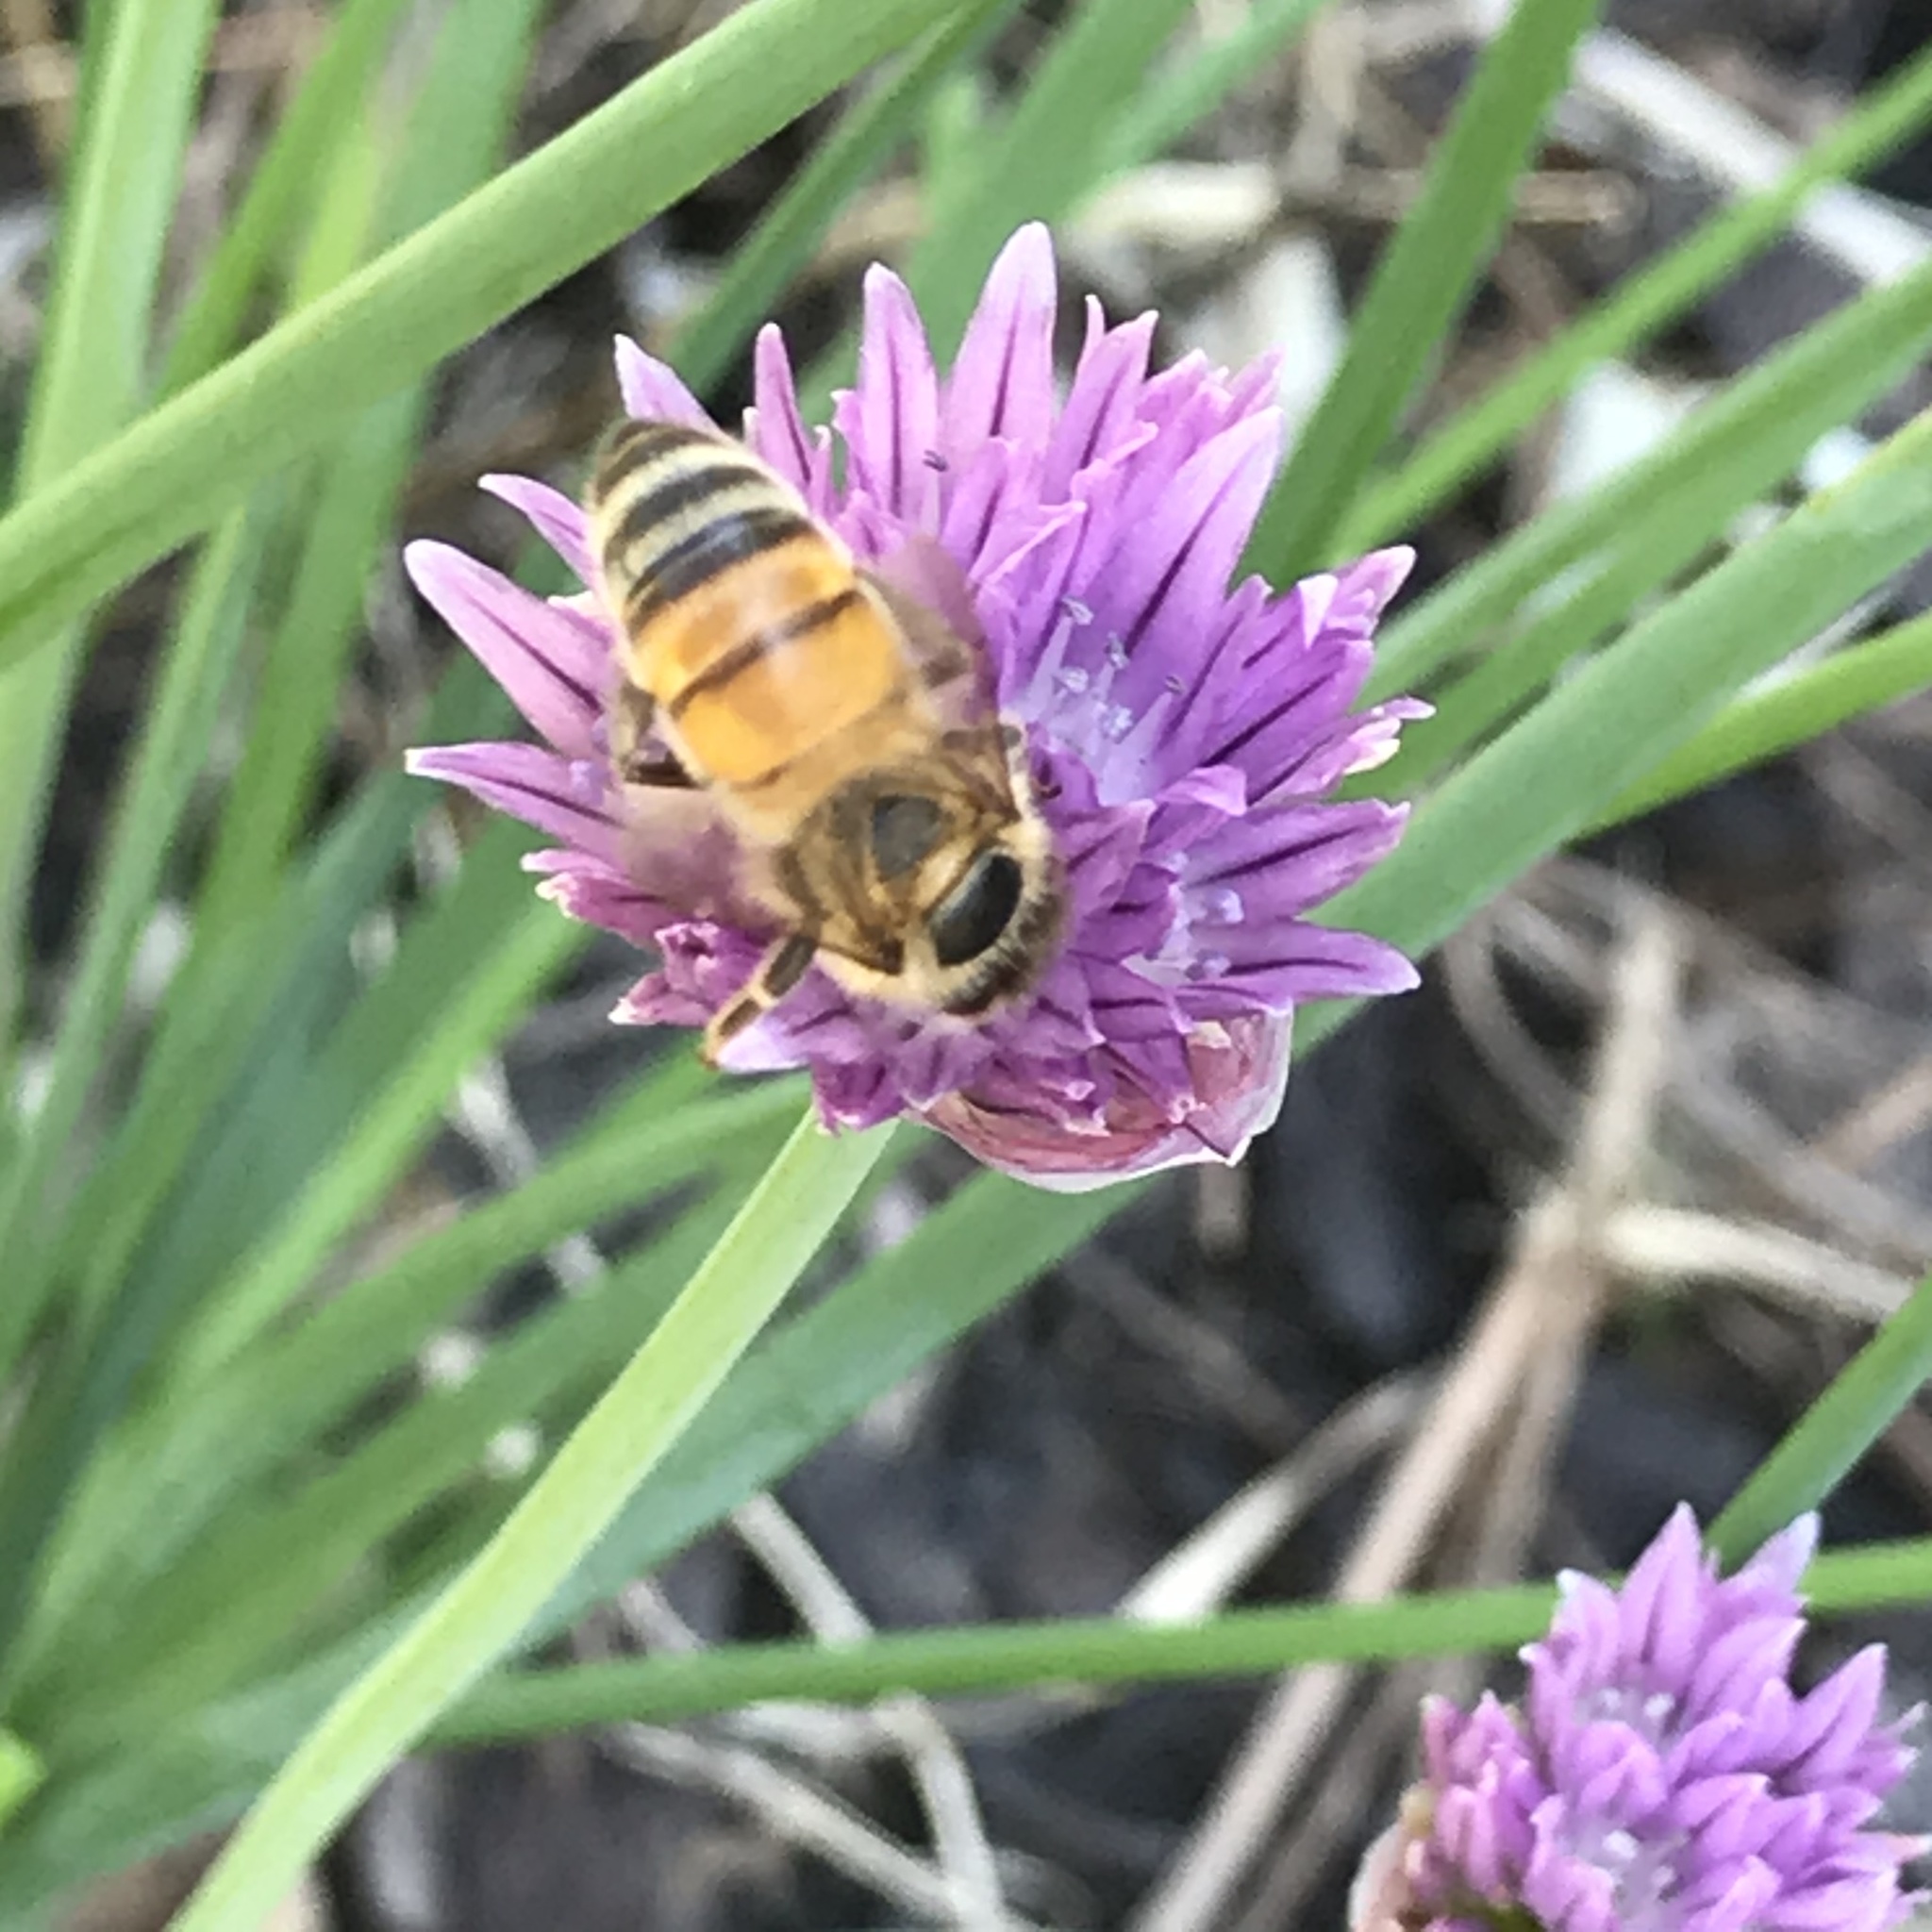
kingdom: Animalia
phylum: Arthropoda
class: Insecta
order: Hymenoptera
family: Apidae
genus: Apis
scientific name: Apis mellifera
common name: Honey bee
